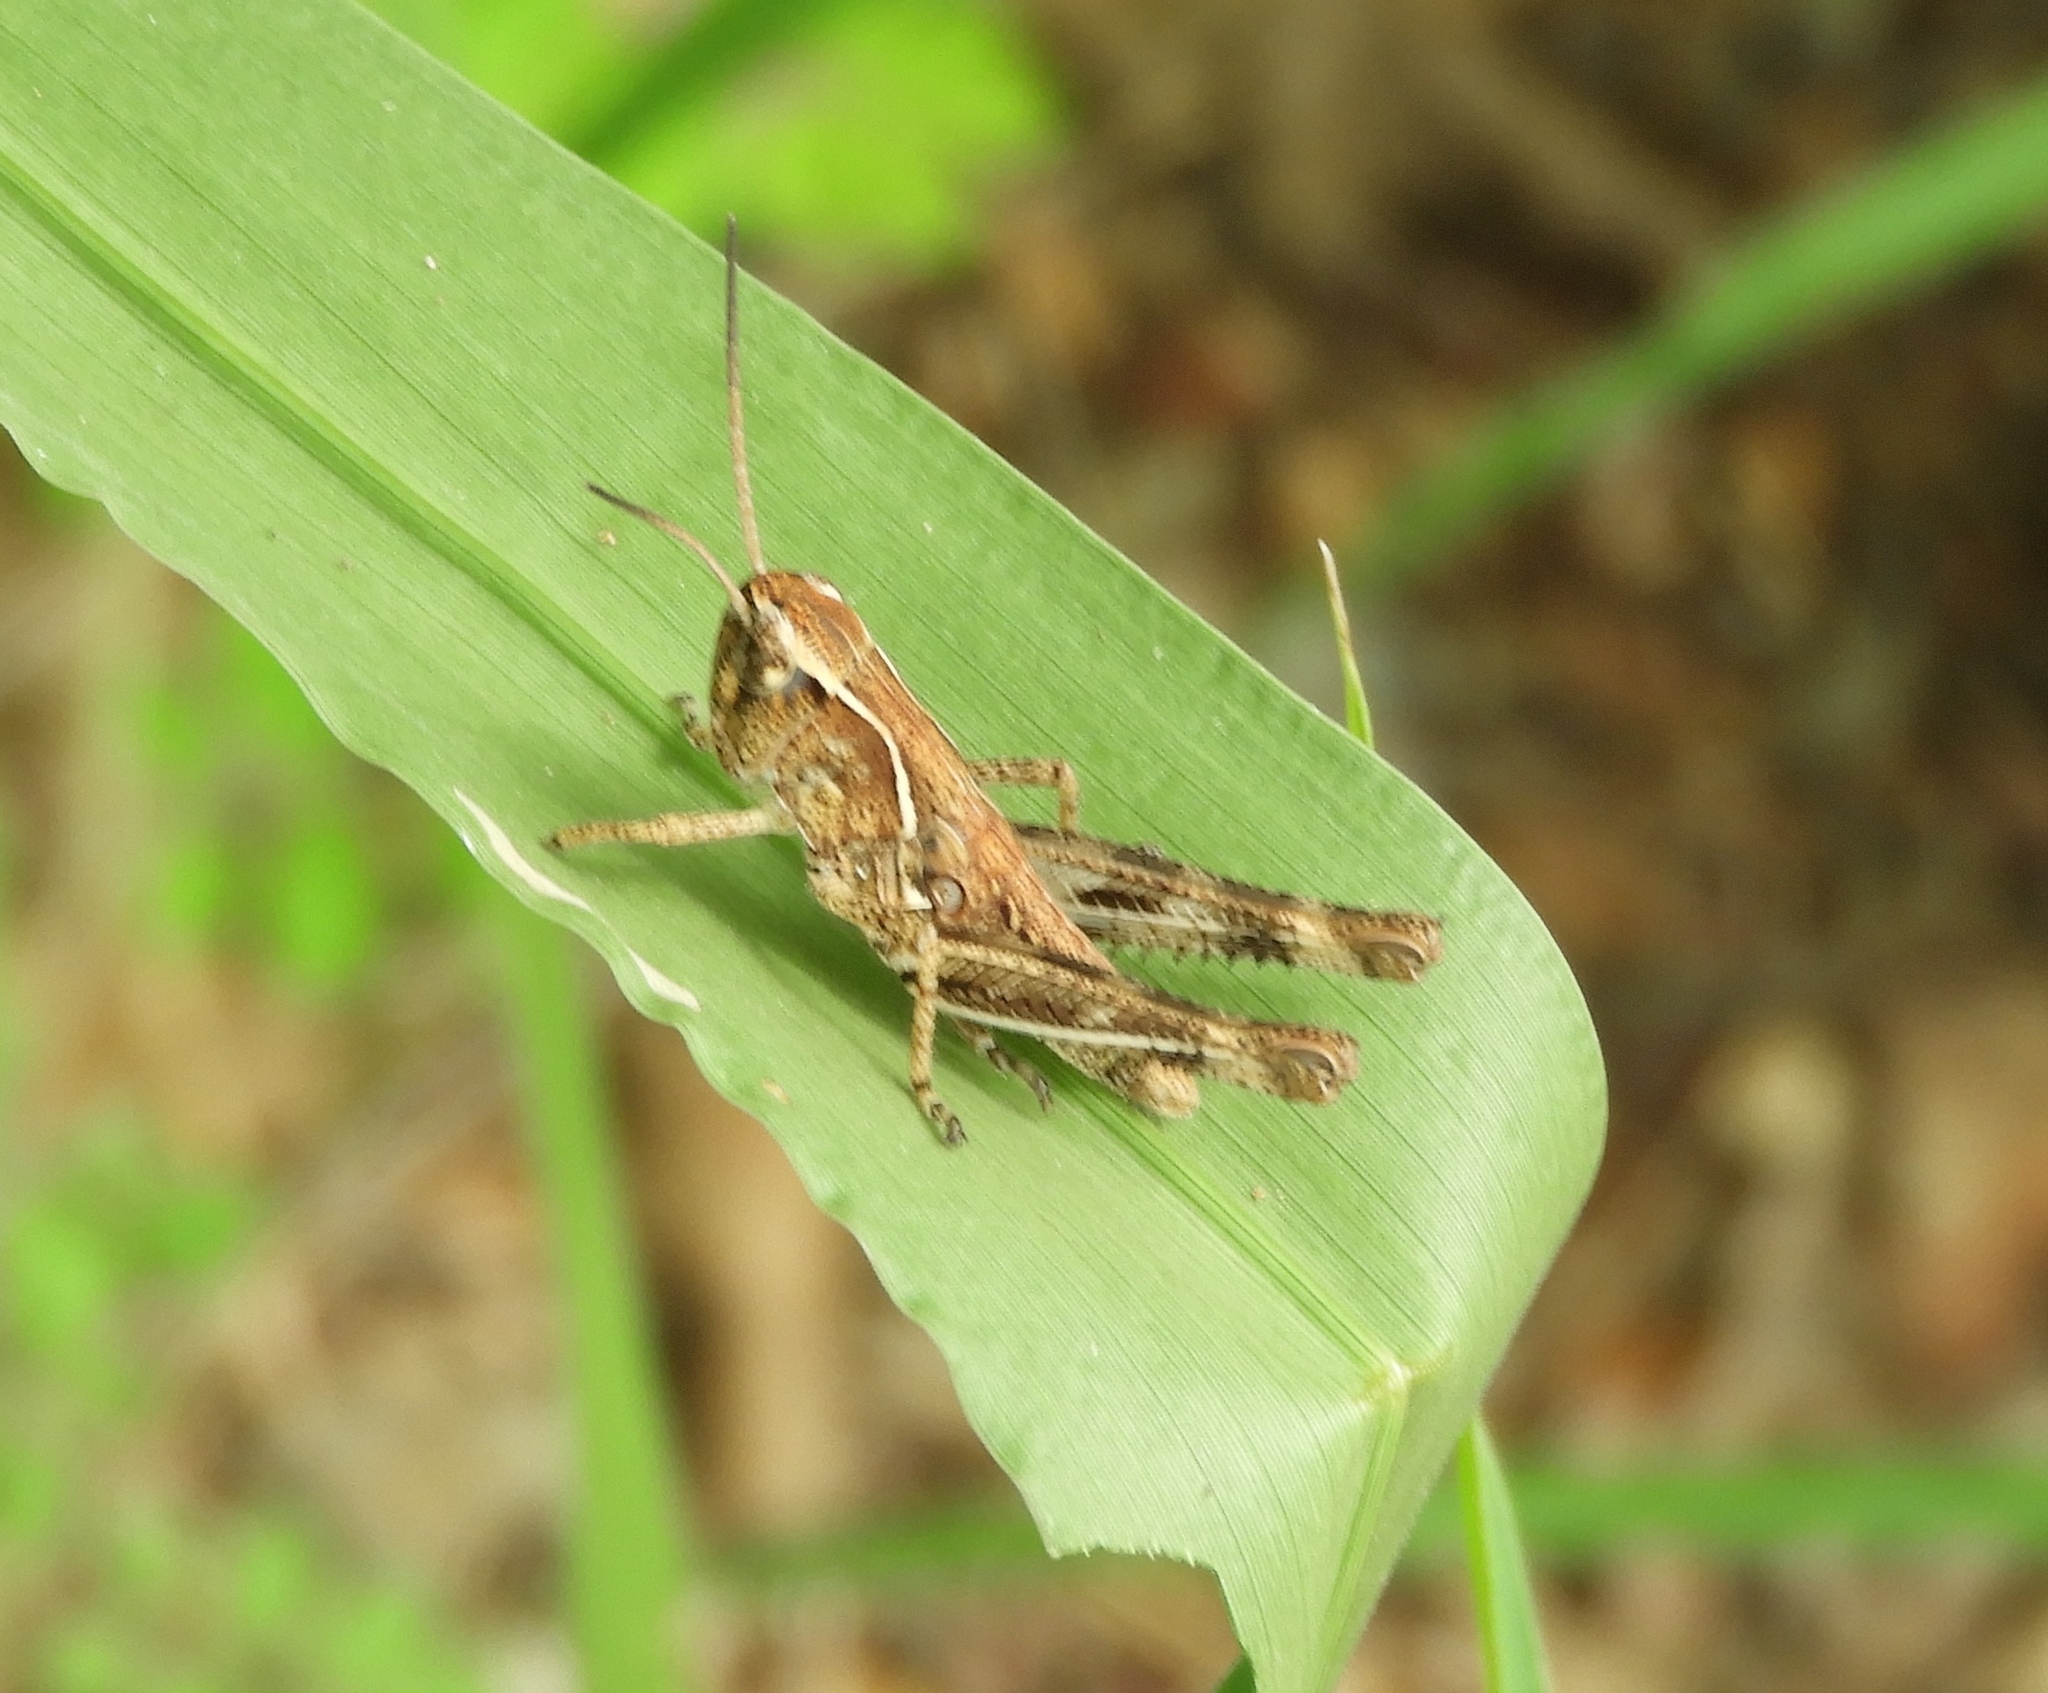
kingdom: Animalia
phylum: Arthropoda
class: Insecta
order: Orthoptera
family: Acrididae
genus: Boopedon
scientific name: Boopedon flaviventris
